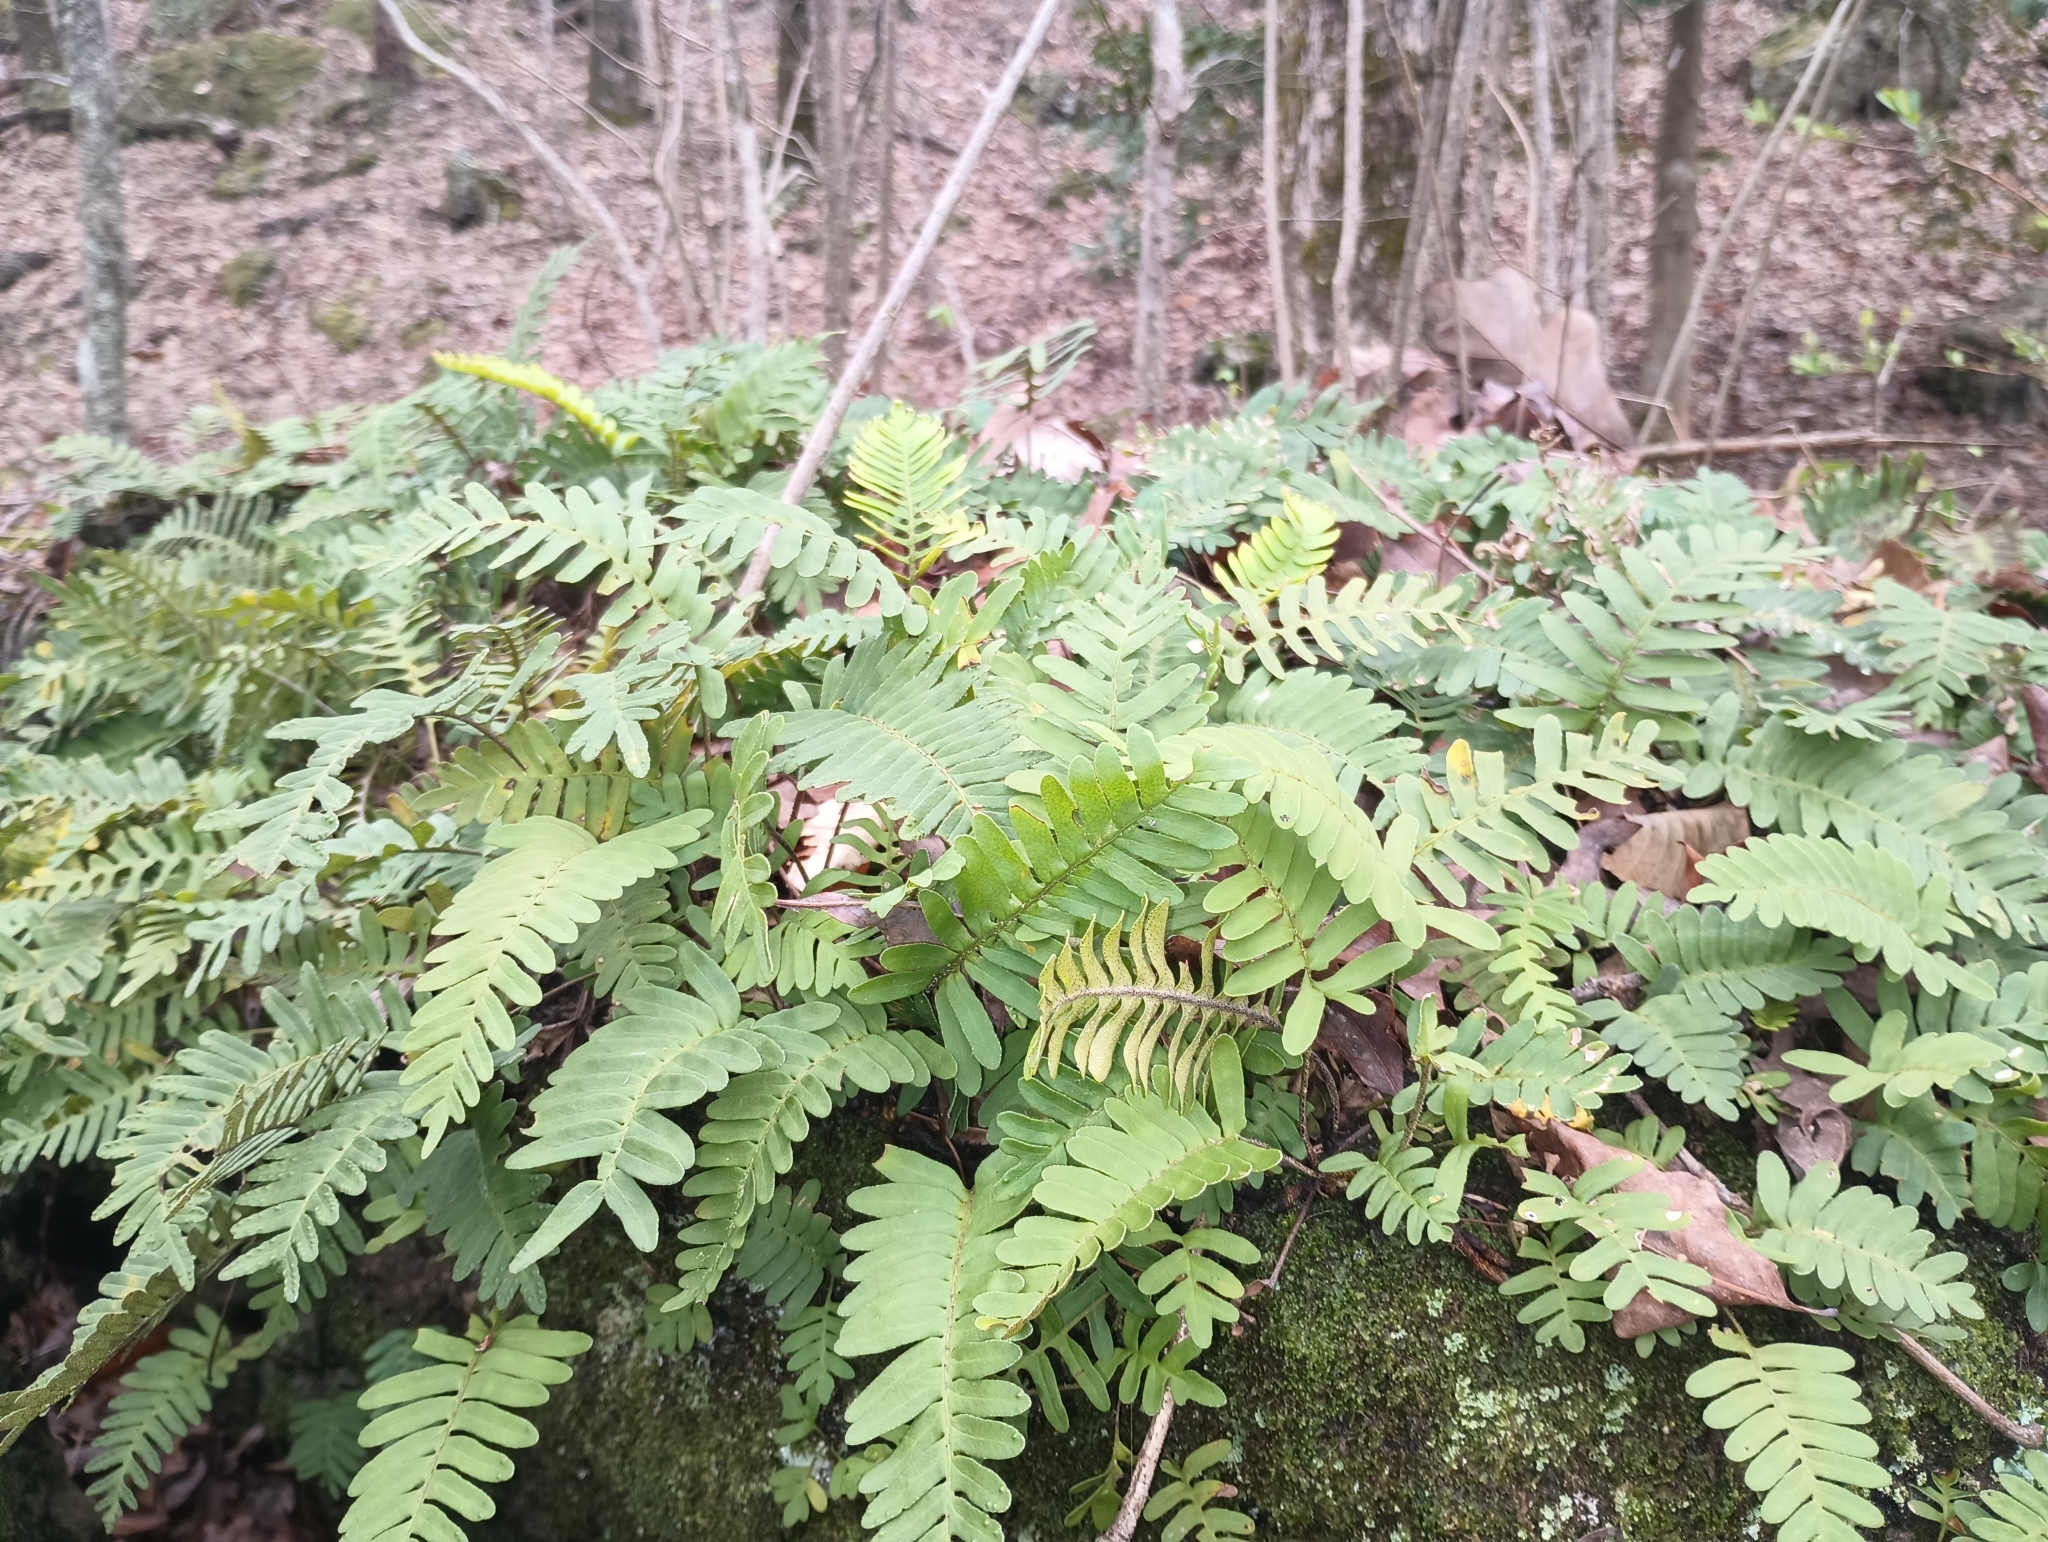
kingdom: Plantae
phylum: Tracheophyta
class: Polypodiopsida
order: Polypodiales
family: Polypodiaceae
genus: Pleopeltis
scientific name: Pleopeltis michauxiana
